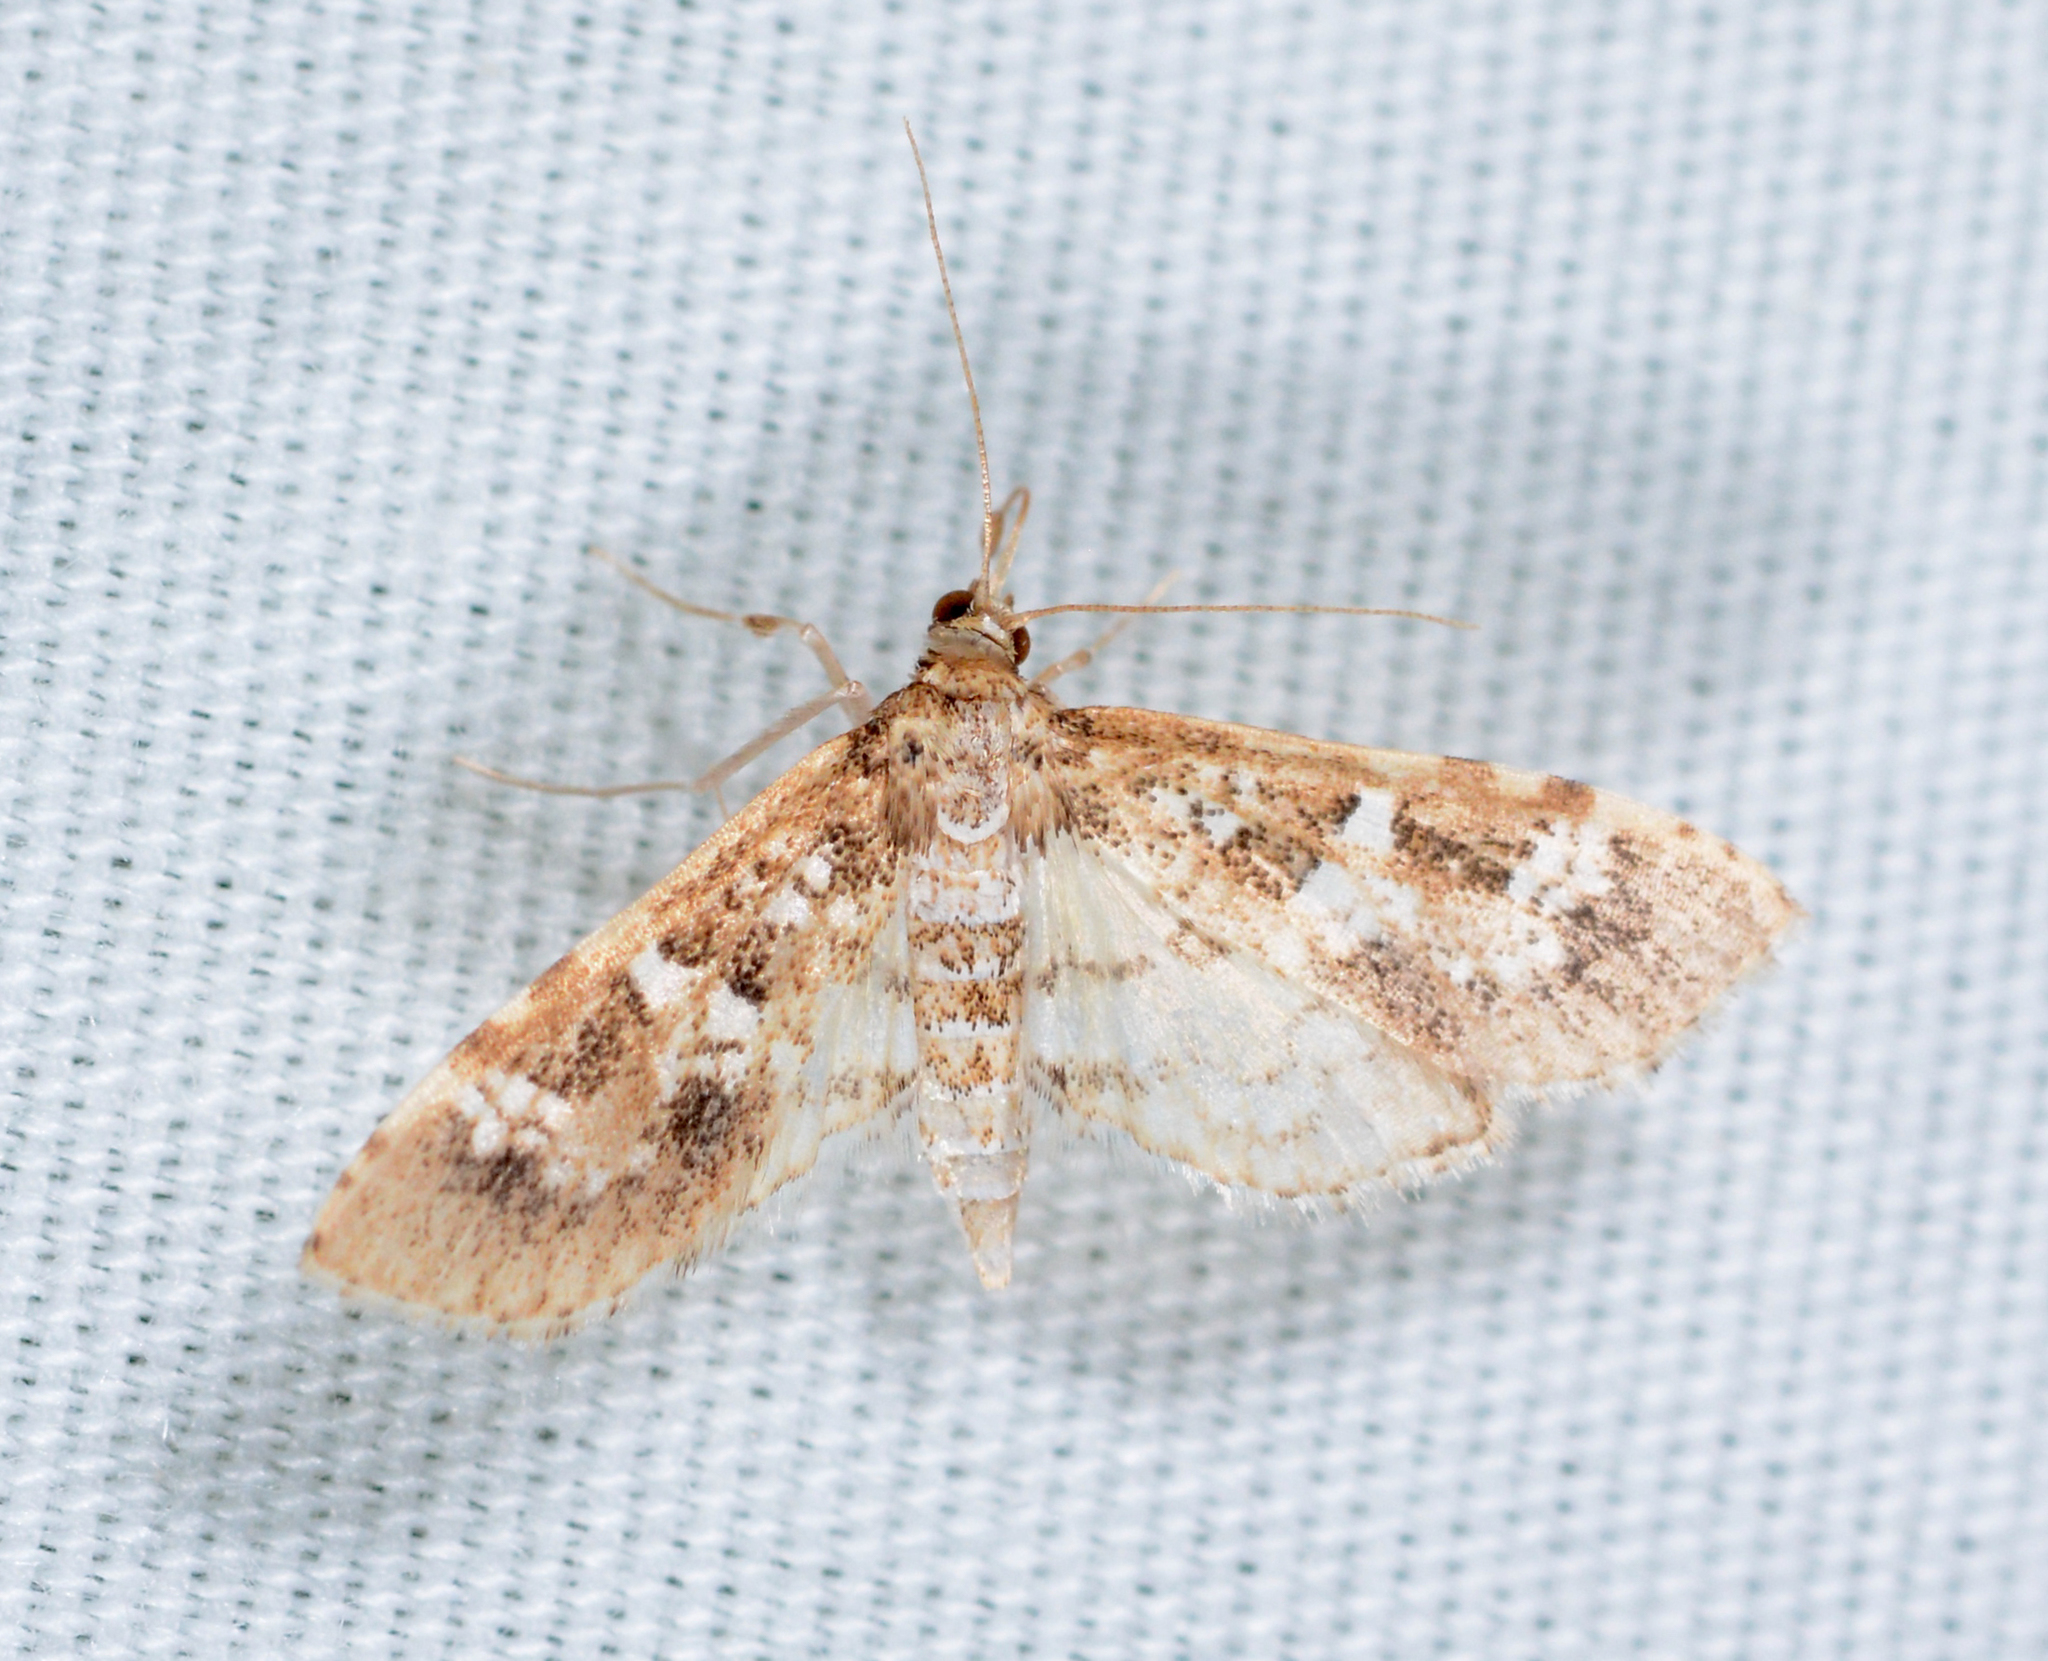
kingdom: Animalia
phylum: Arthropoda
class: Insecta
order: Lepidoptera
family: Crambidae
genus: Samea
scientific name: Samea multiplicalis
